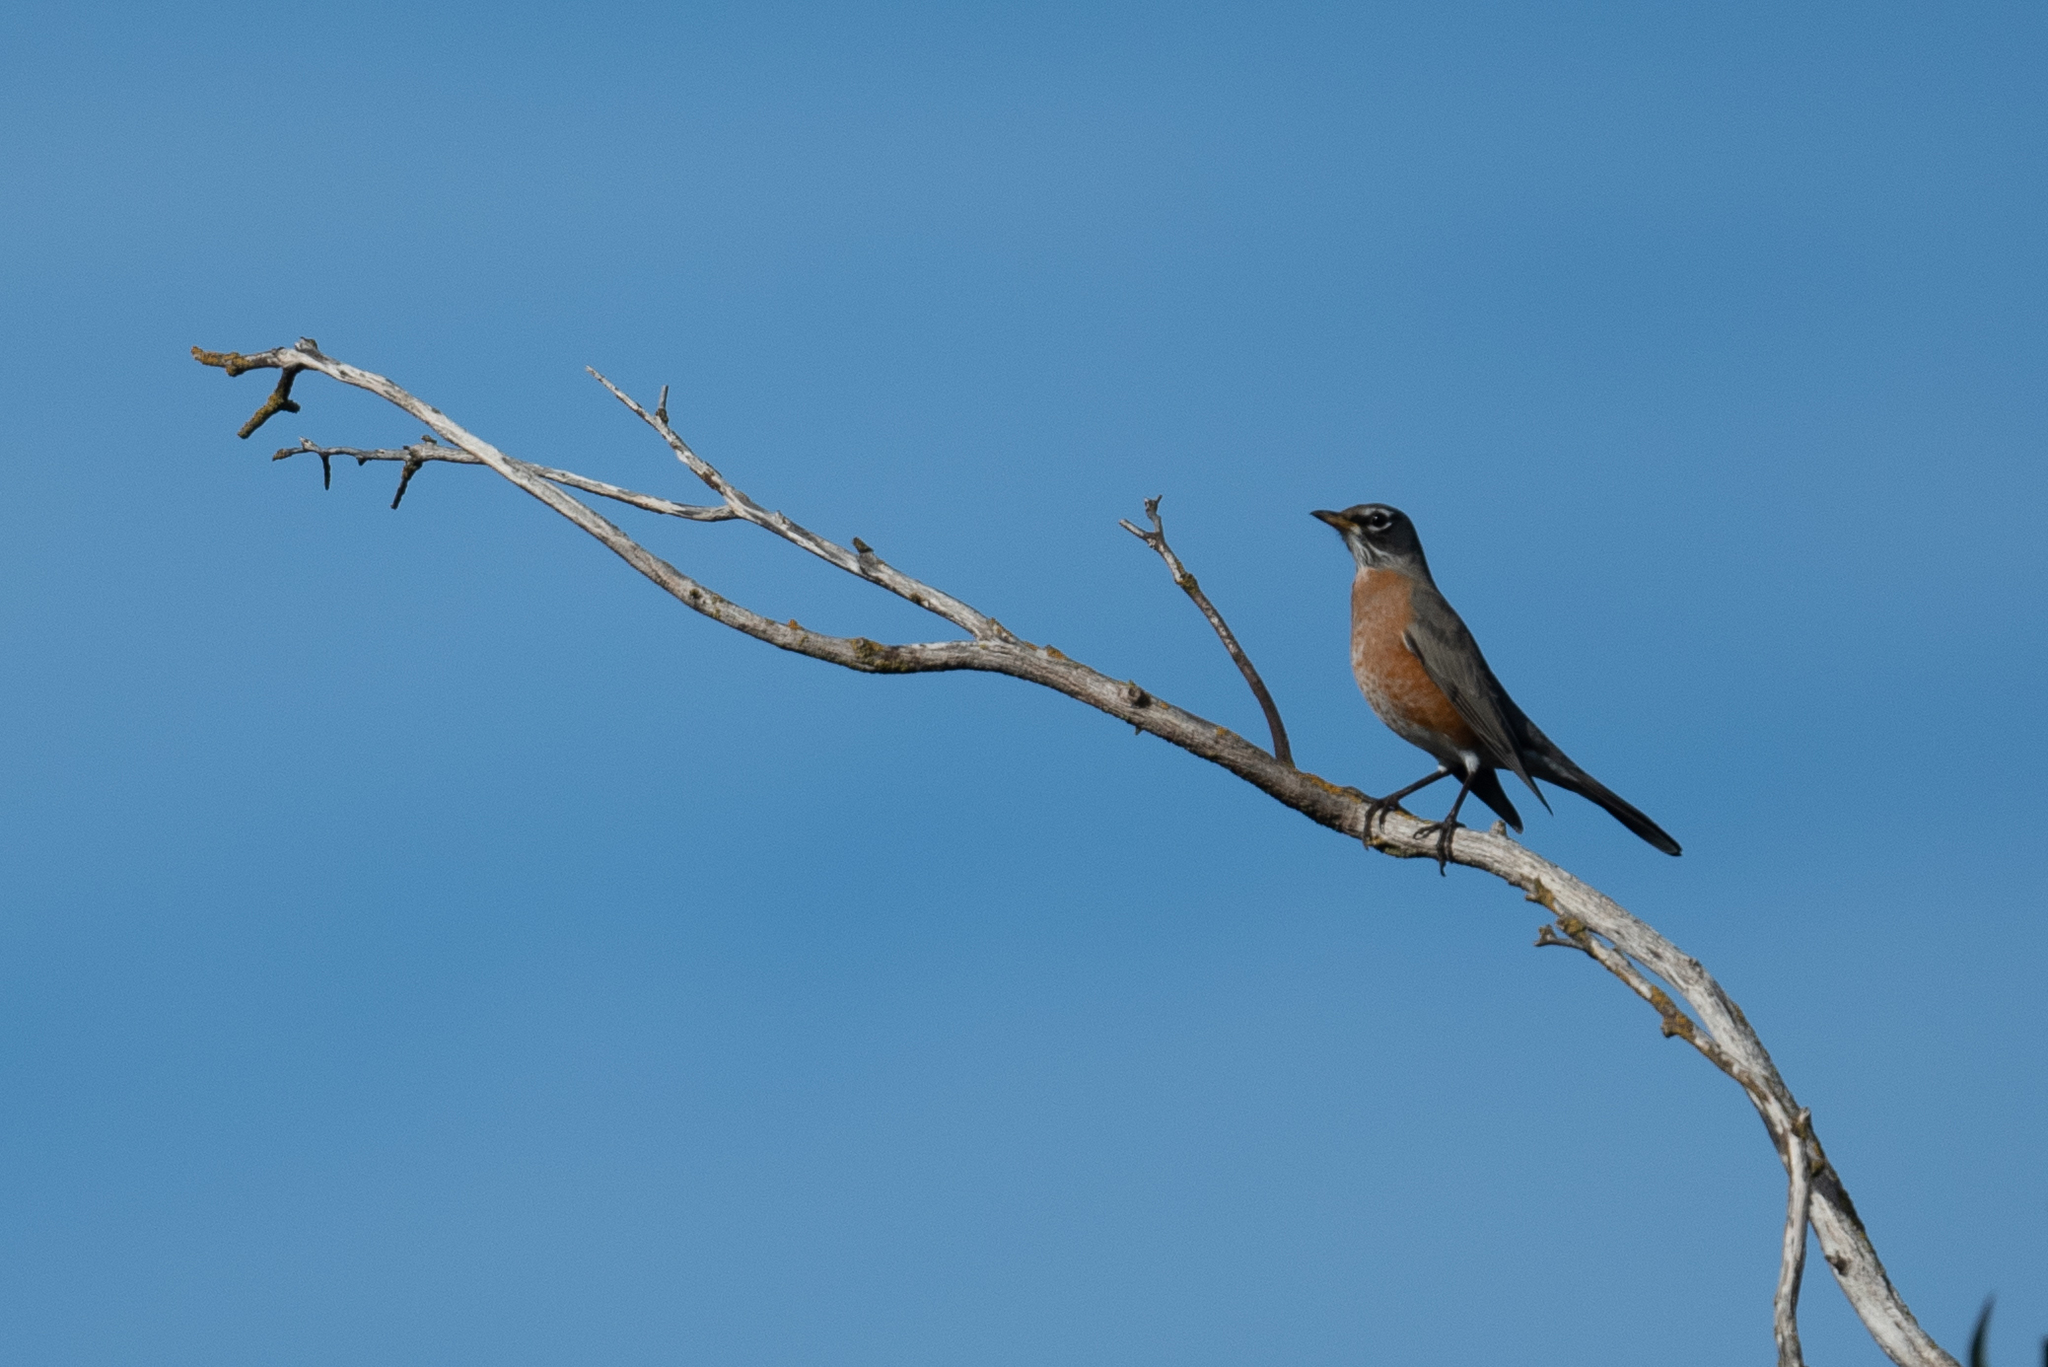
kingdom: Animalia
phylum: Chordata
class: Aves
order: Passeriformes
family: Turdidae
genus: Turdus
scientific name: Turdus migratorius
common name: American robin
